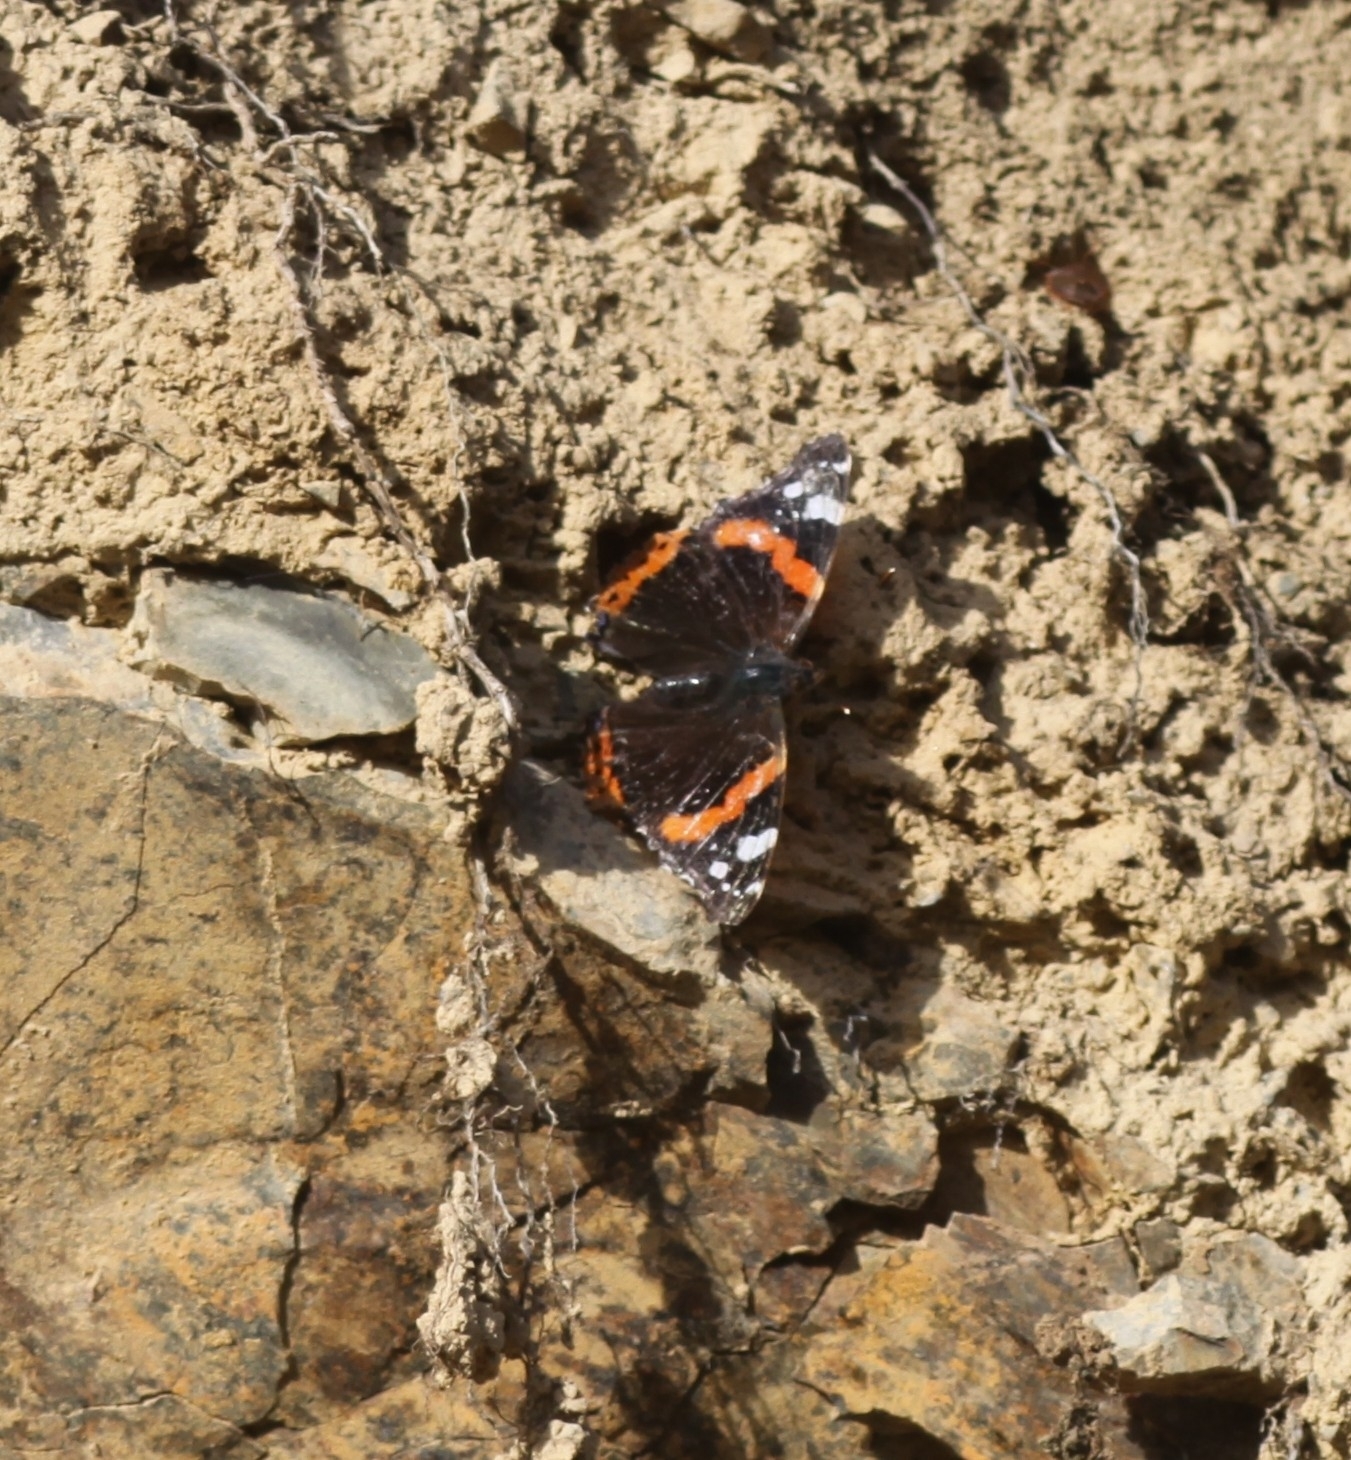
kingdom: Animalia
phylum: Arthropoda
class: Insecta
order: Lepidoptera
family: Nymphalidae
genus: Vanessa
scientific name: Vanessa atalanta
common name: Red admiral
